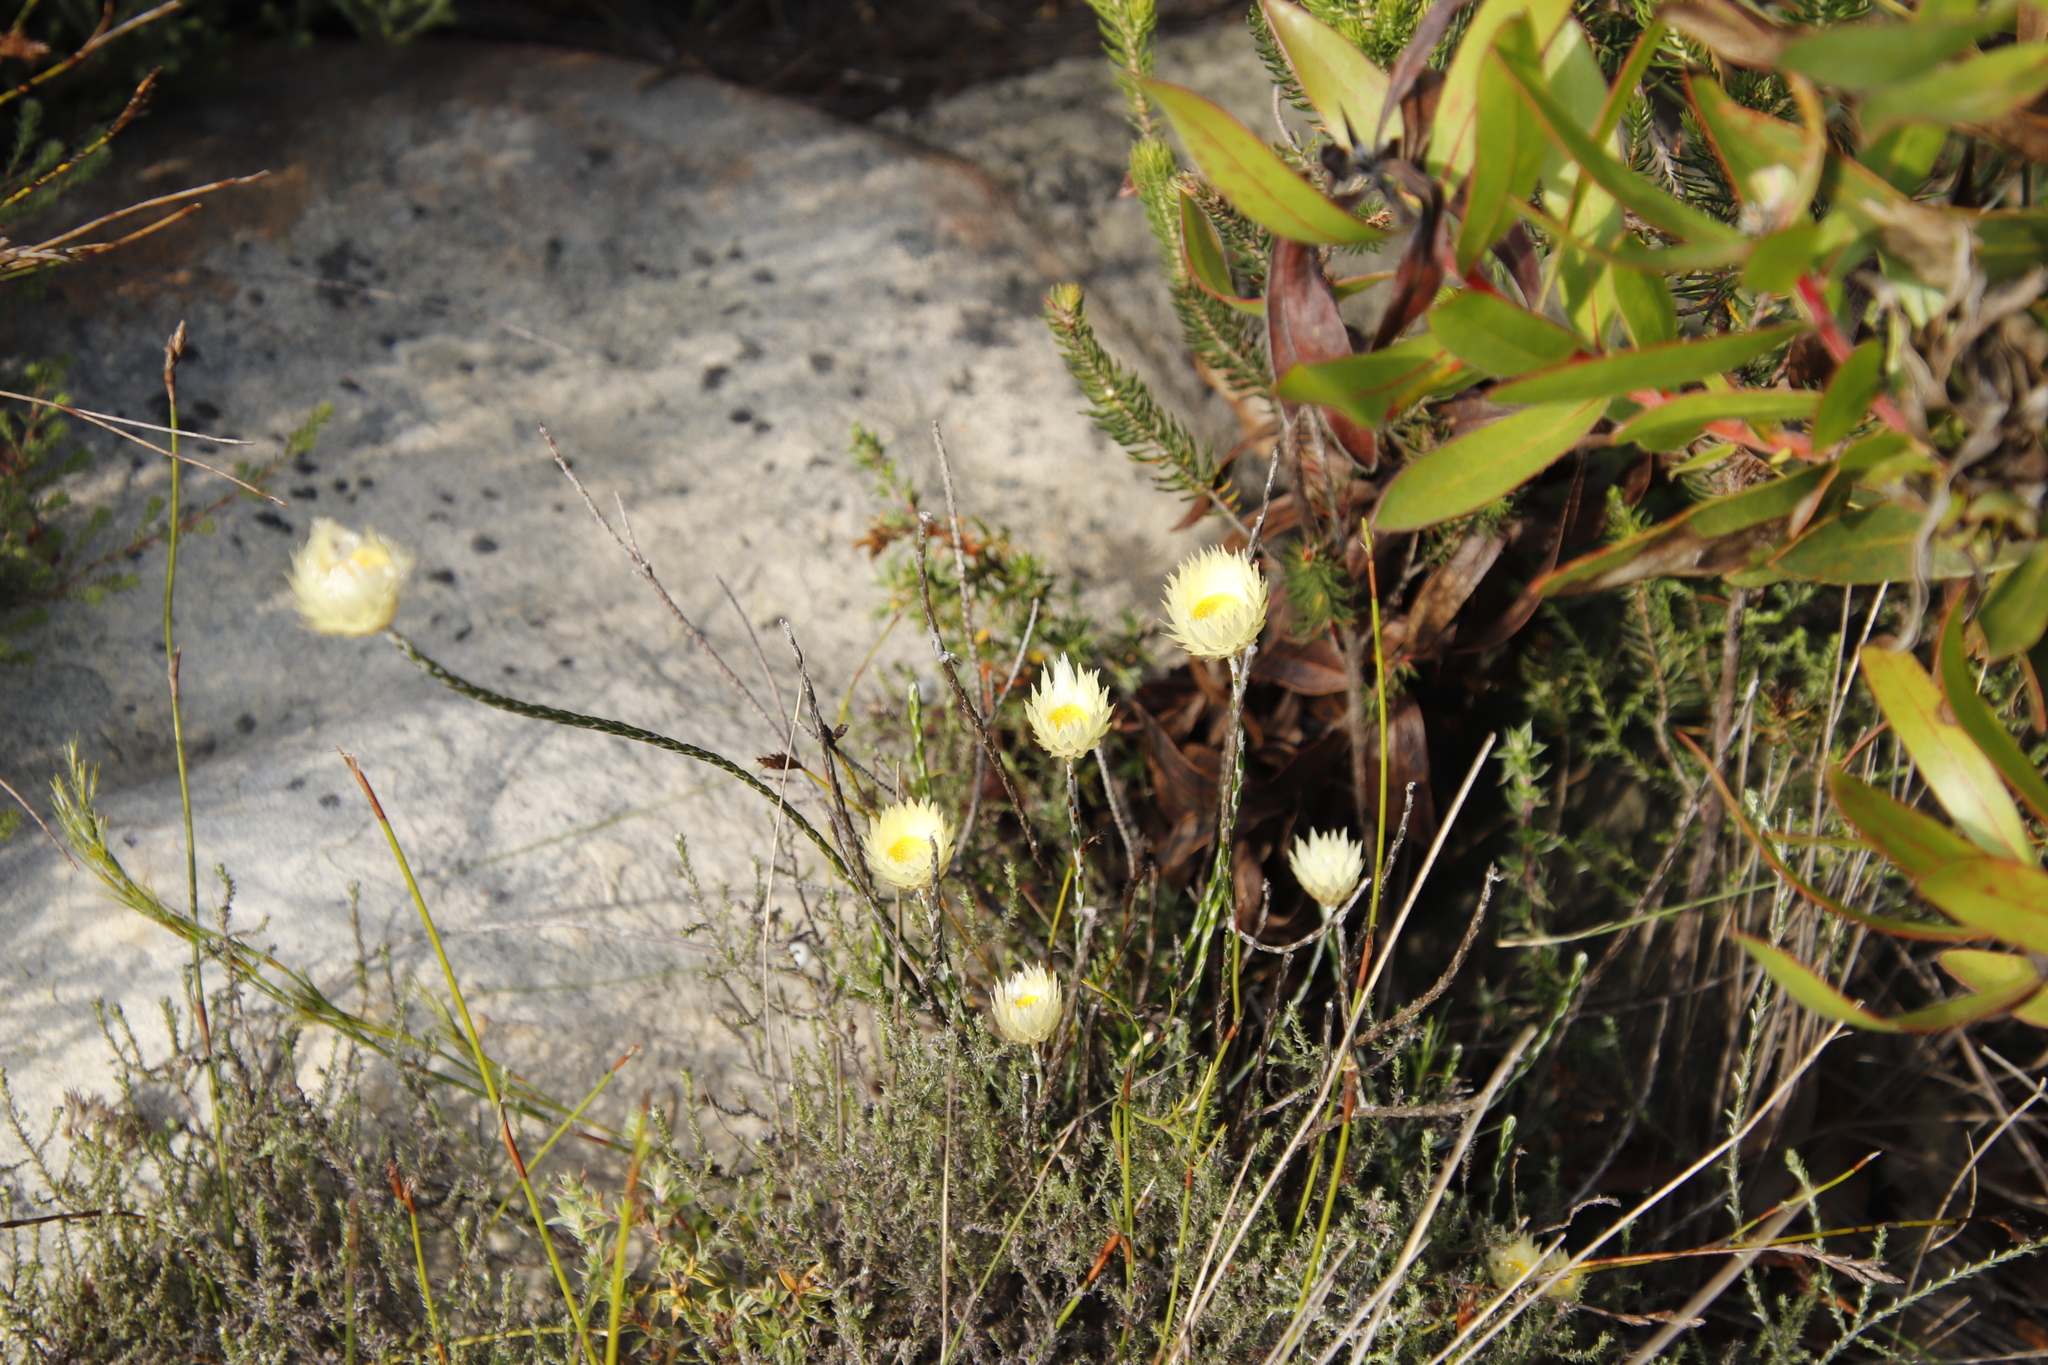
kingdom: Plantae
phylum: Tracheophyta
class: Magnoliopsida
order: Asterales
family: Asteraceae
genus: Edmondia
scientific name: Edmondia sesamoides
